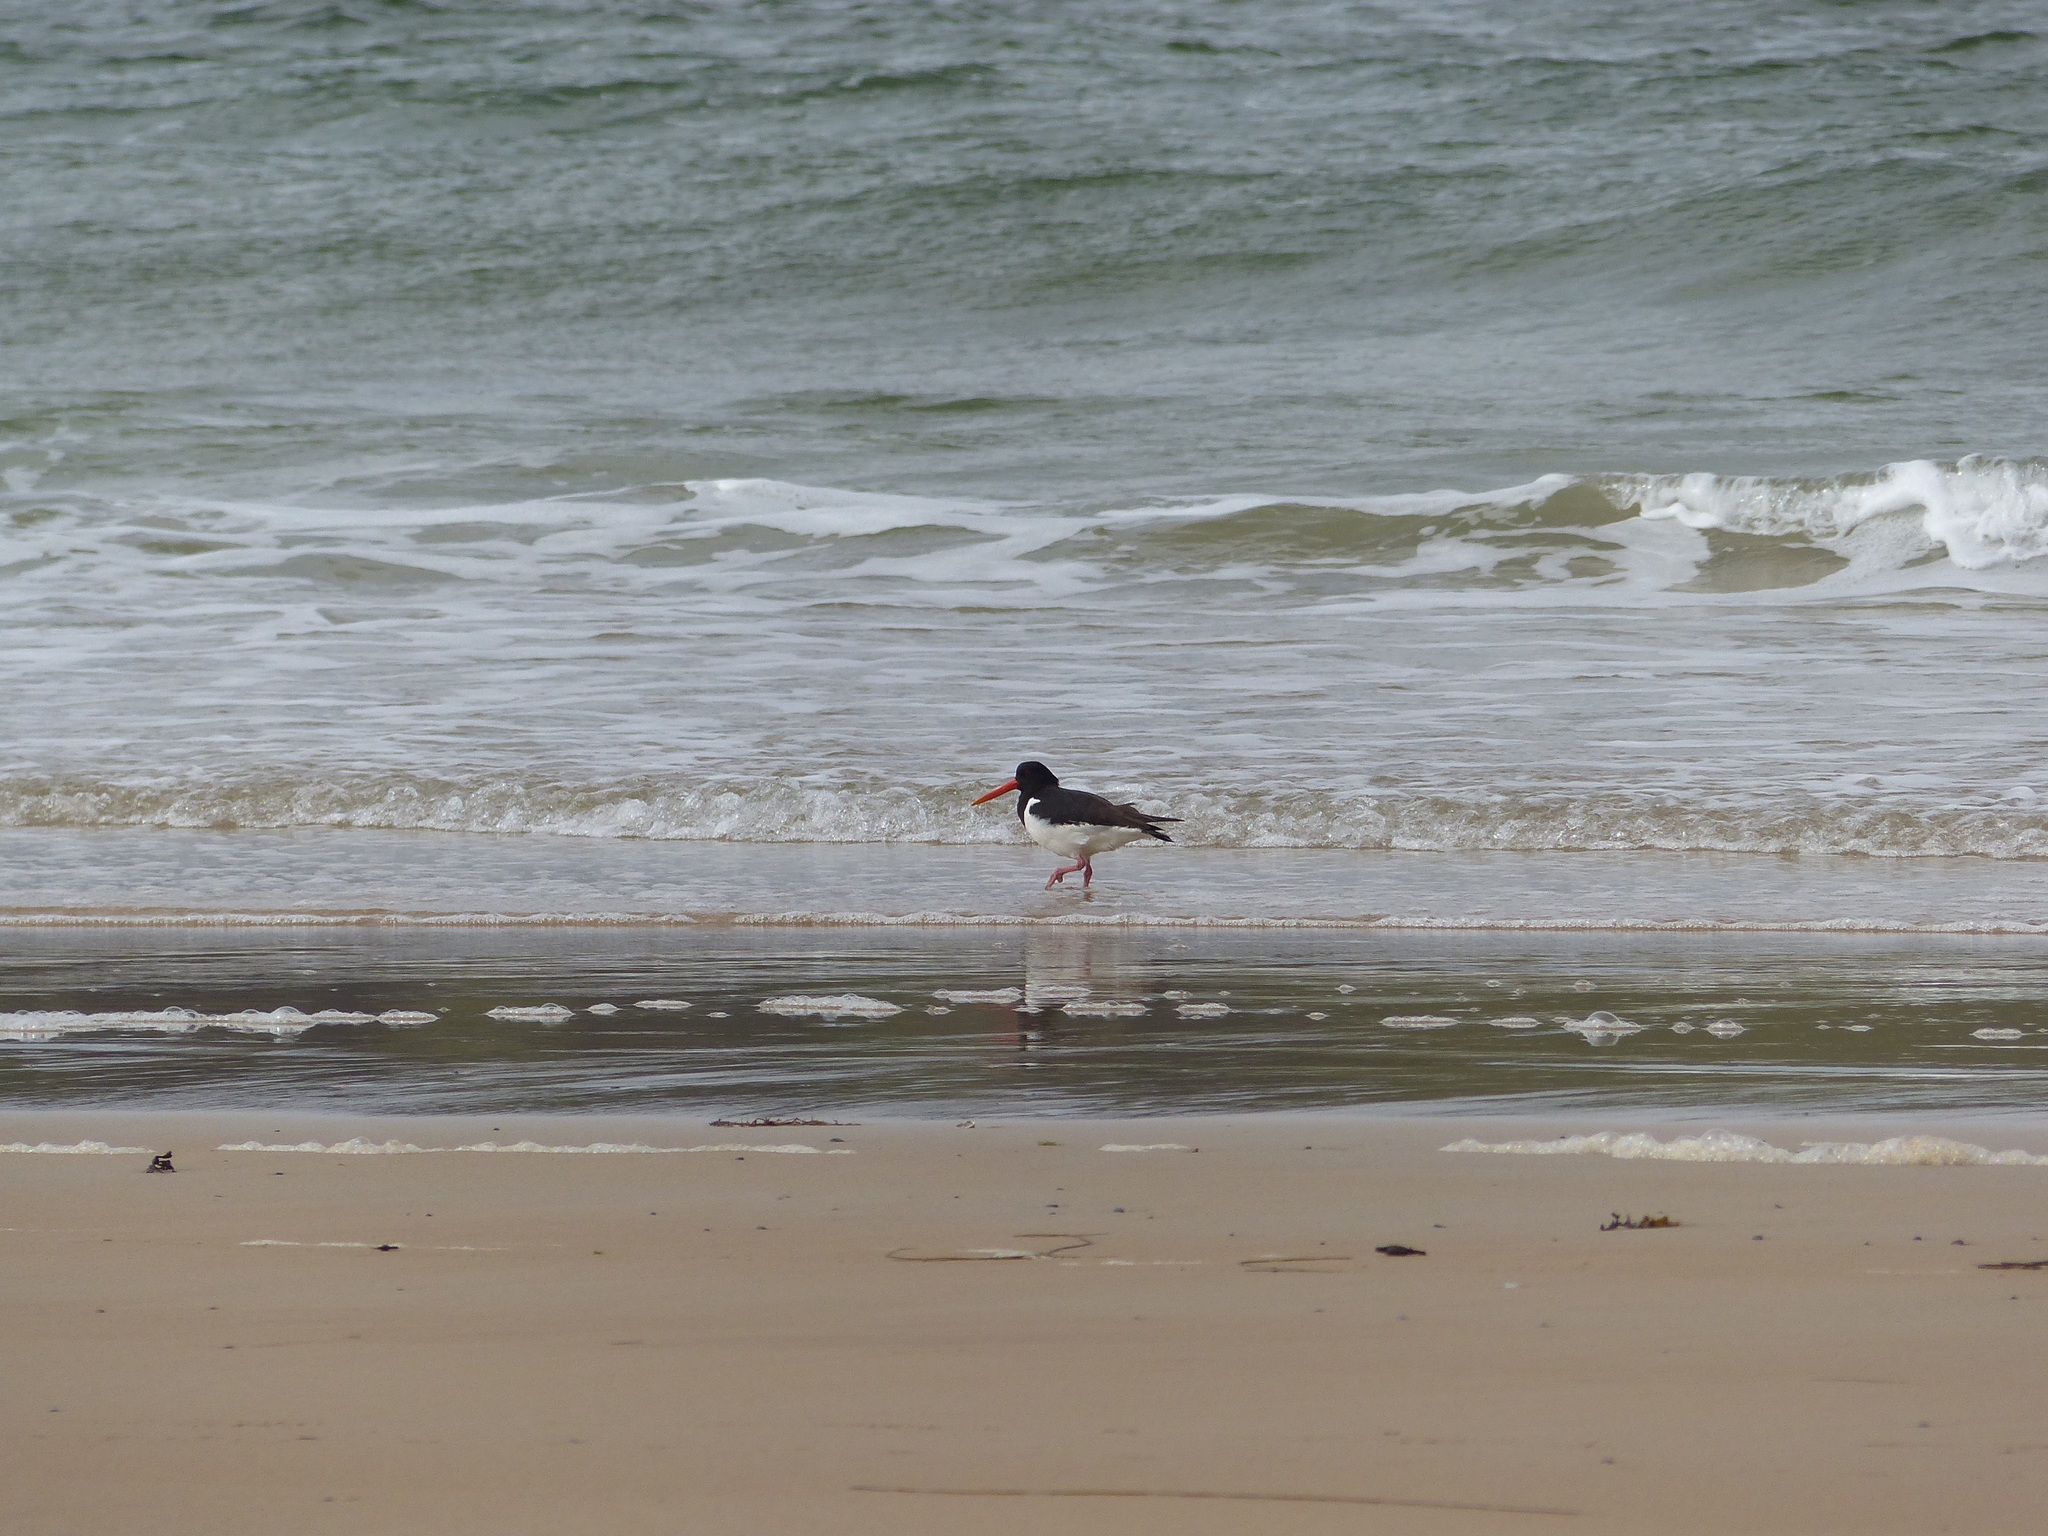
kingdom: Animalia
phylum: Chordata
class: Aves
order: Charadriiformes
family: Haematopodidae
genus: Haematopus
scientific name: Haematopus ostralegus
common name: Eurasian oystercatcher
